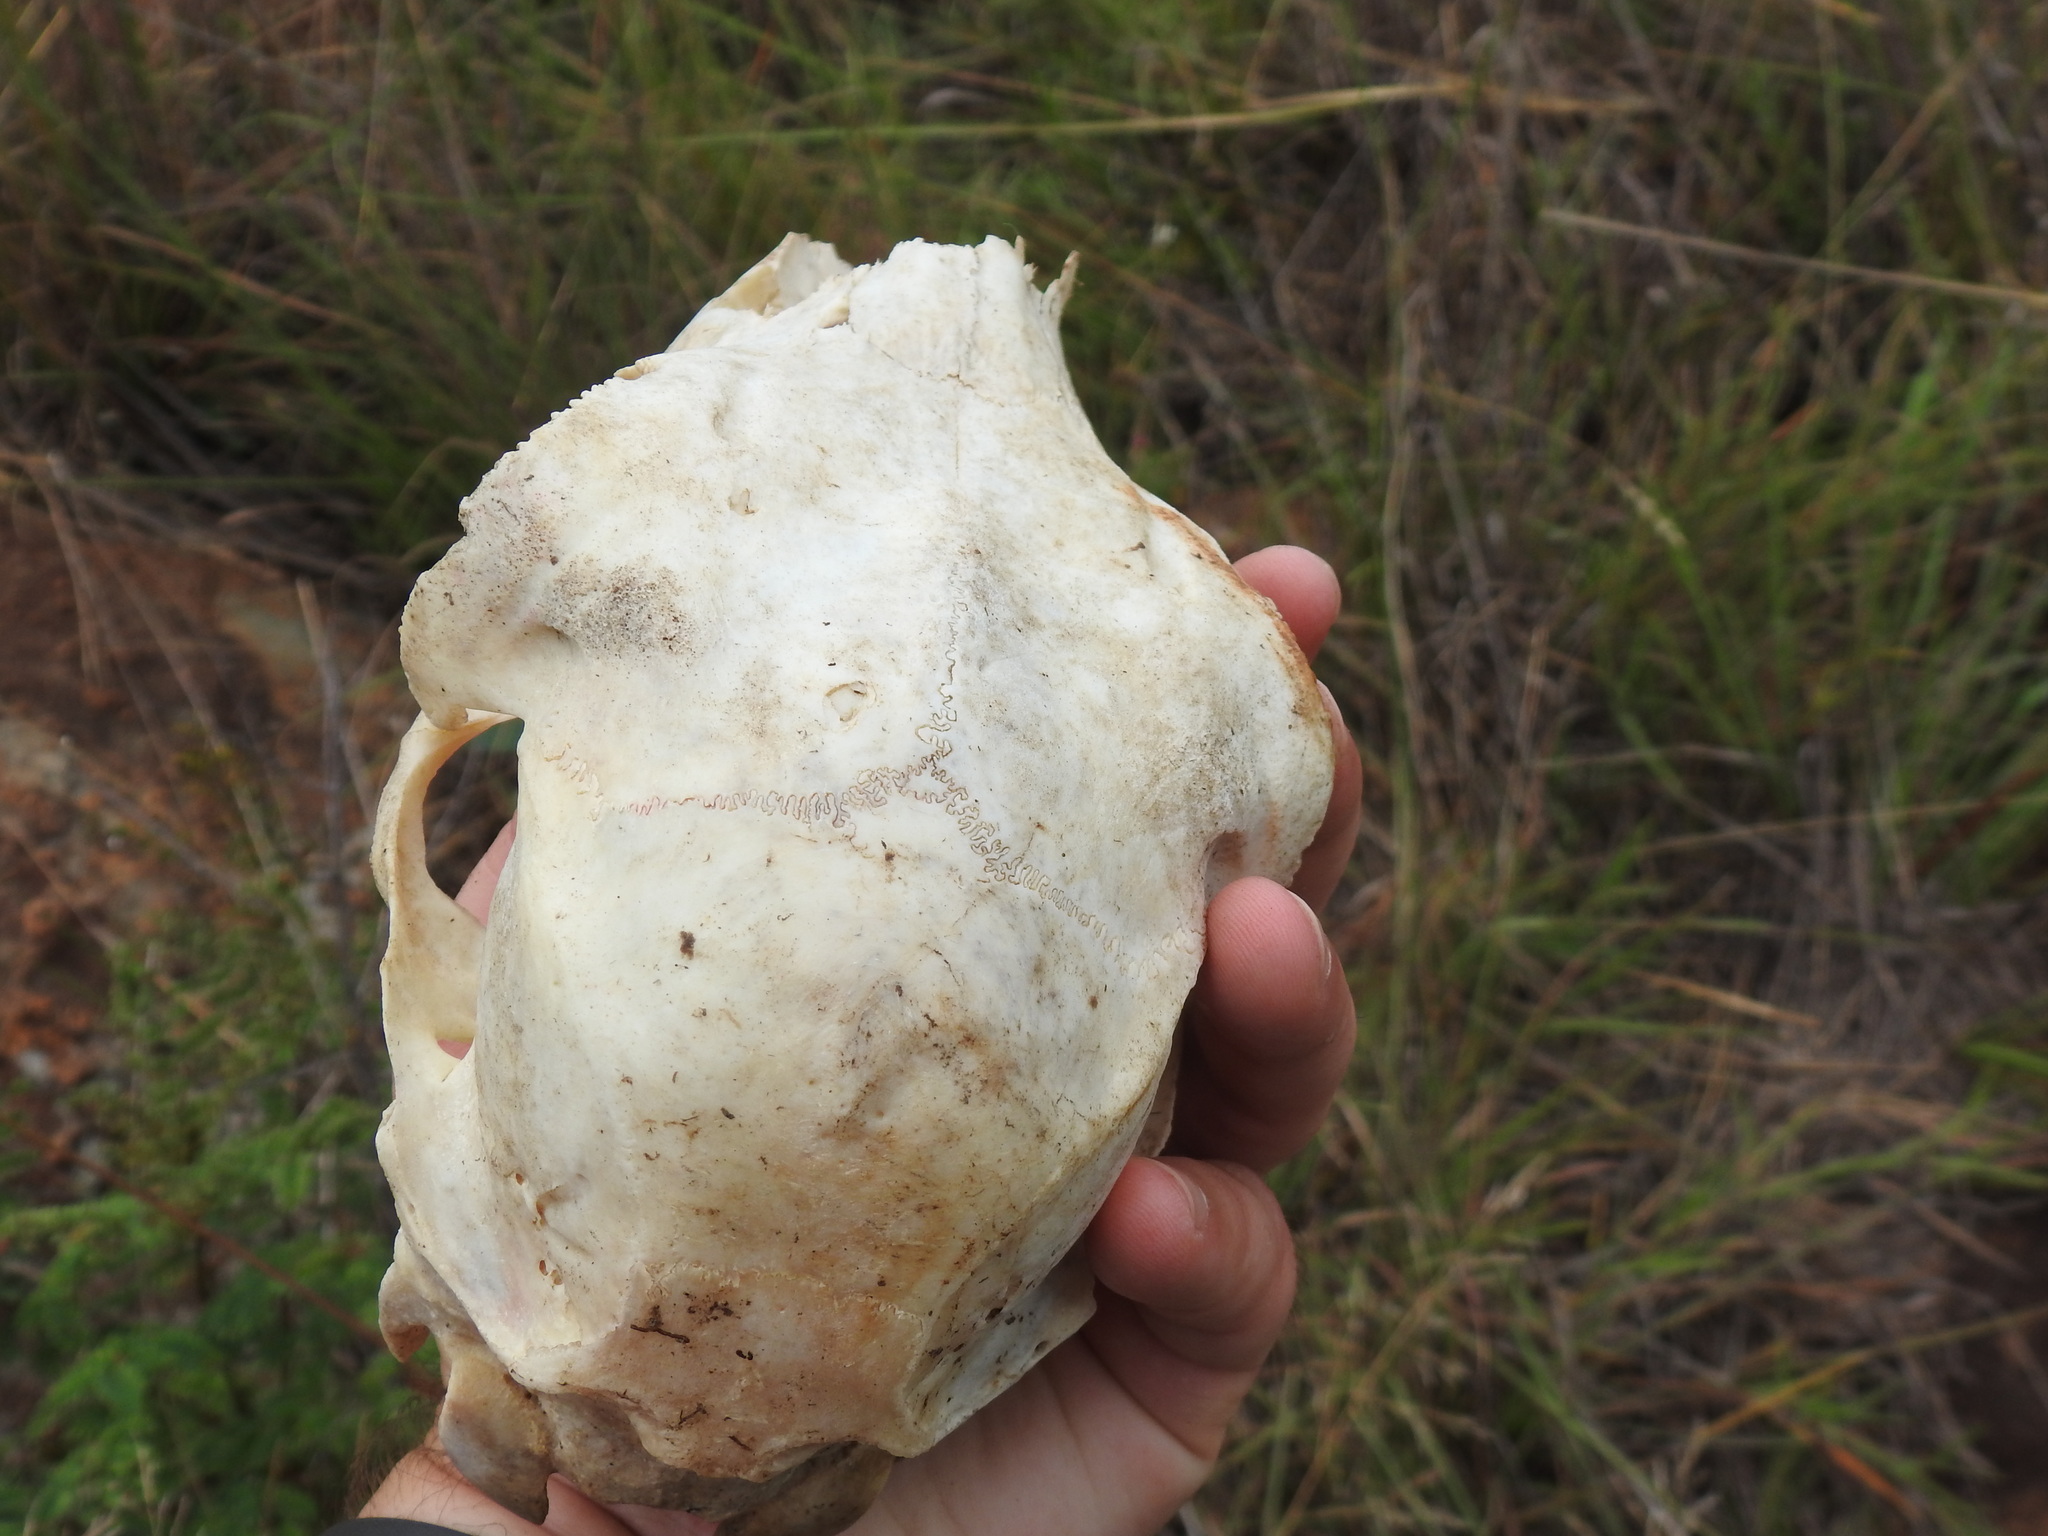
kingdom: Animalia
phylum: Chordata
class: Mammalia
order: Artiodactyla
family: Bovidae
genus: Ovis
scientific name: Ovis aries
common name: Domestic sheep
